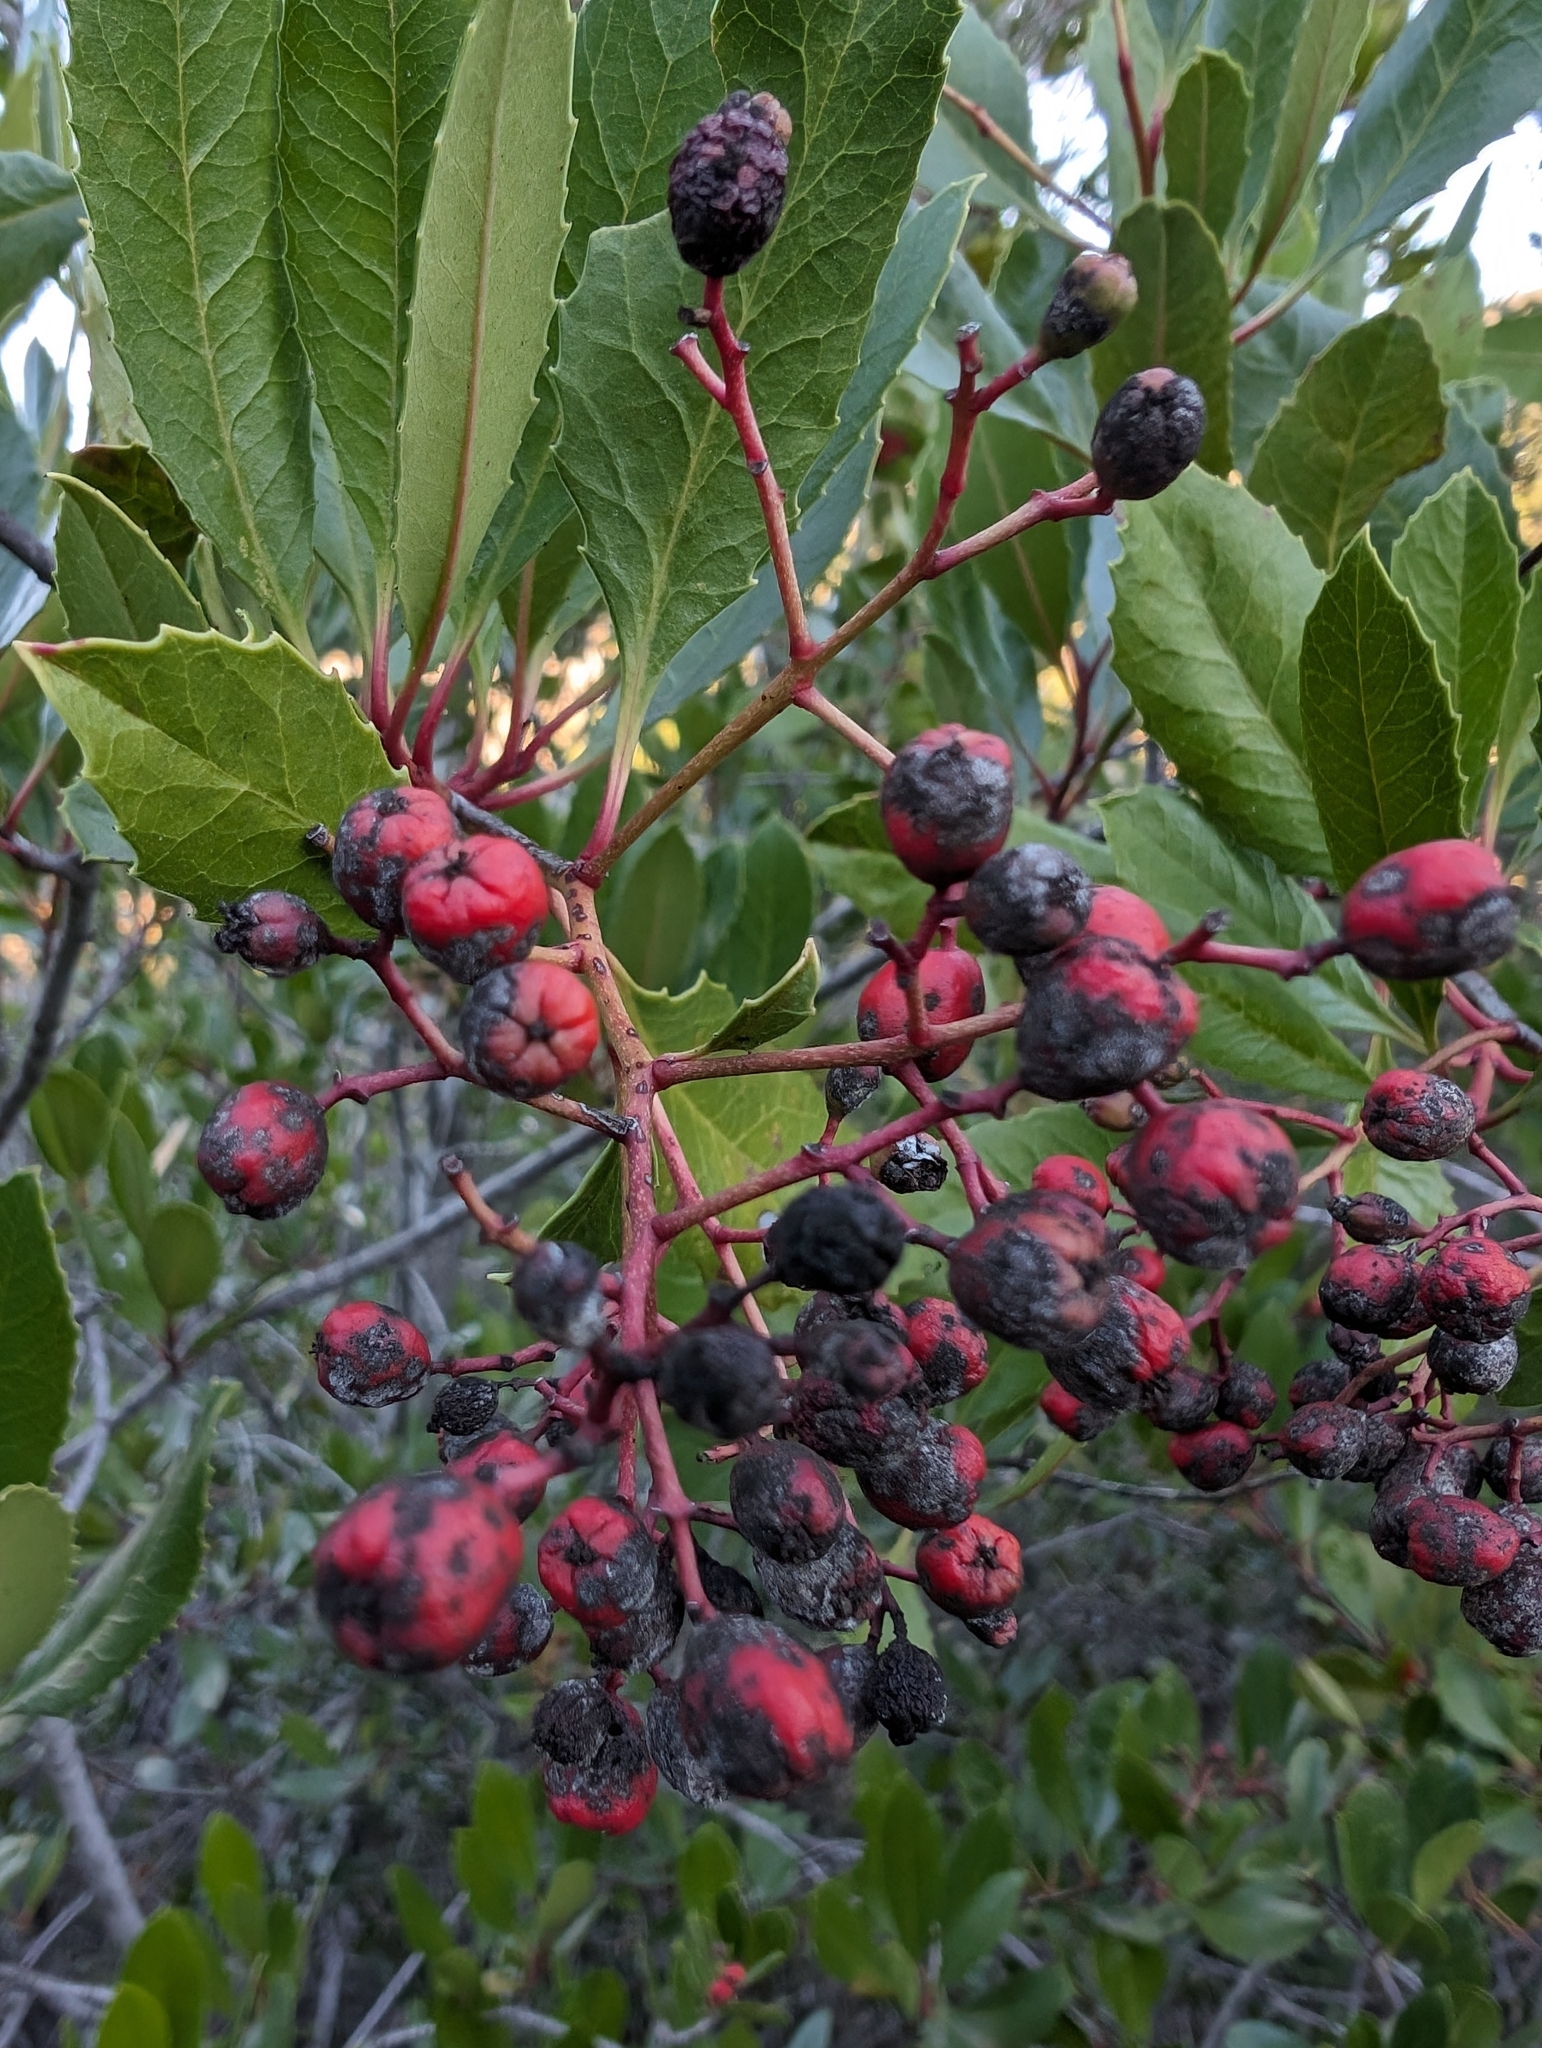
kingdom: Plantae
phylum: Tracheophyta
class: Magnoliopsida
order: Rosales
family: Rosaceae
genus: Heteromeles
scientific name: Heteromeles arbutifolia
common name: California-holly
